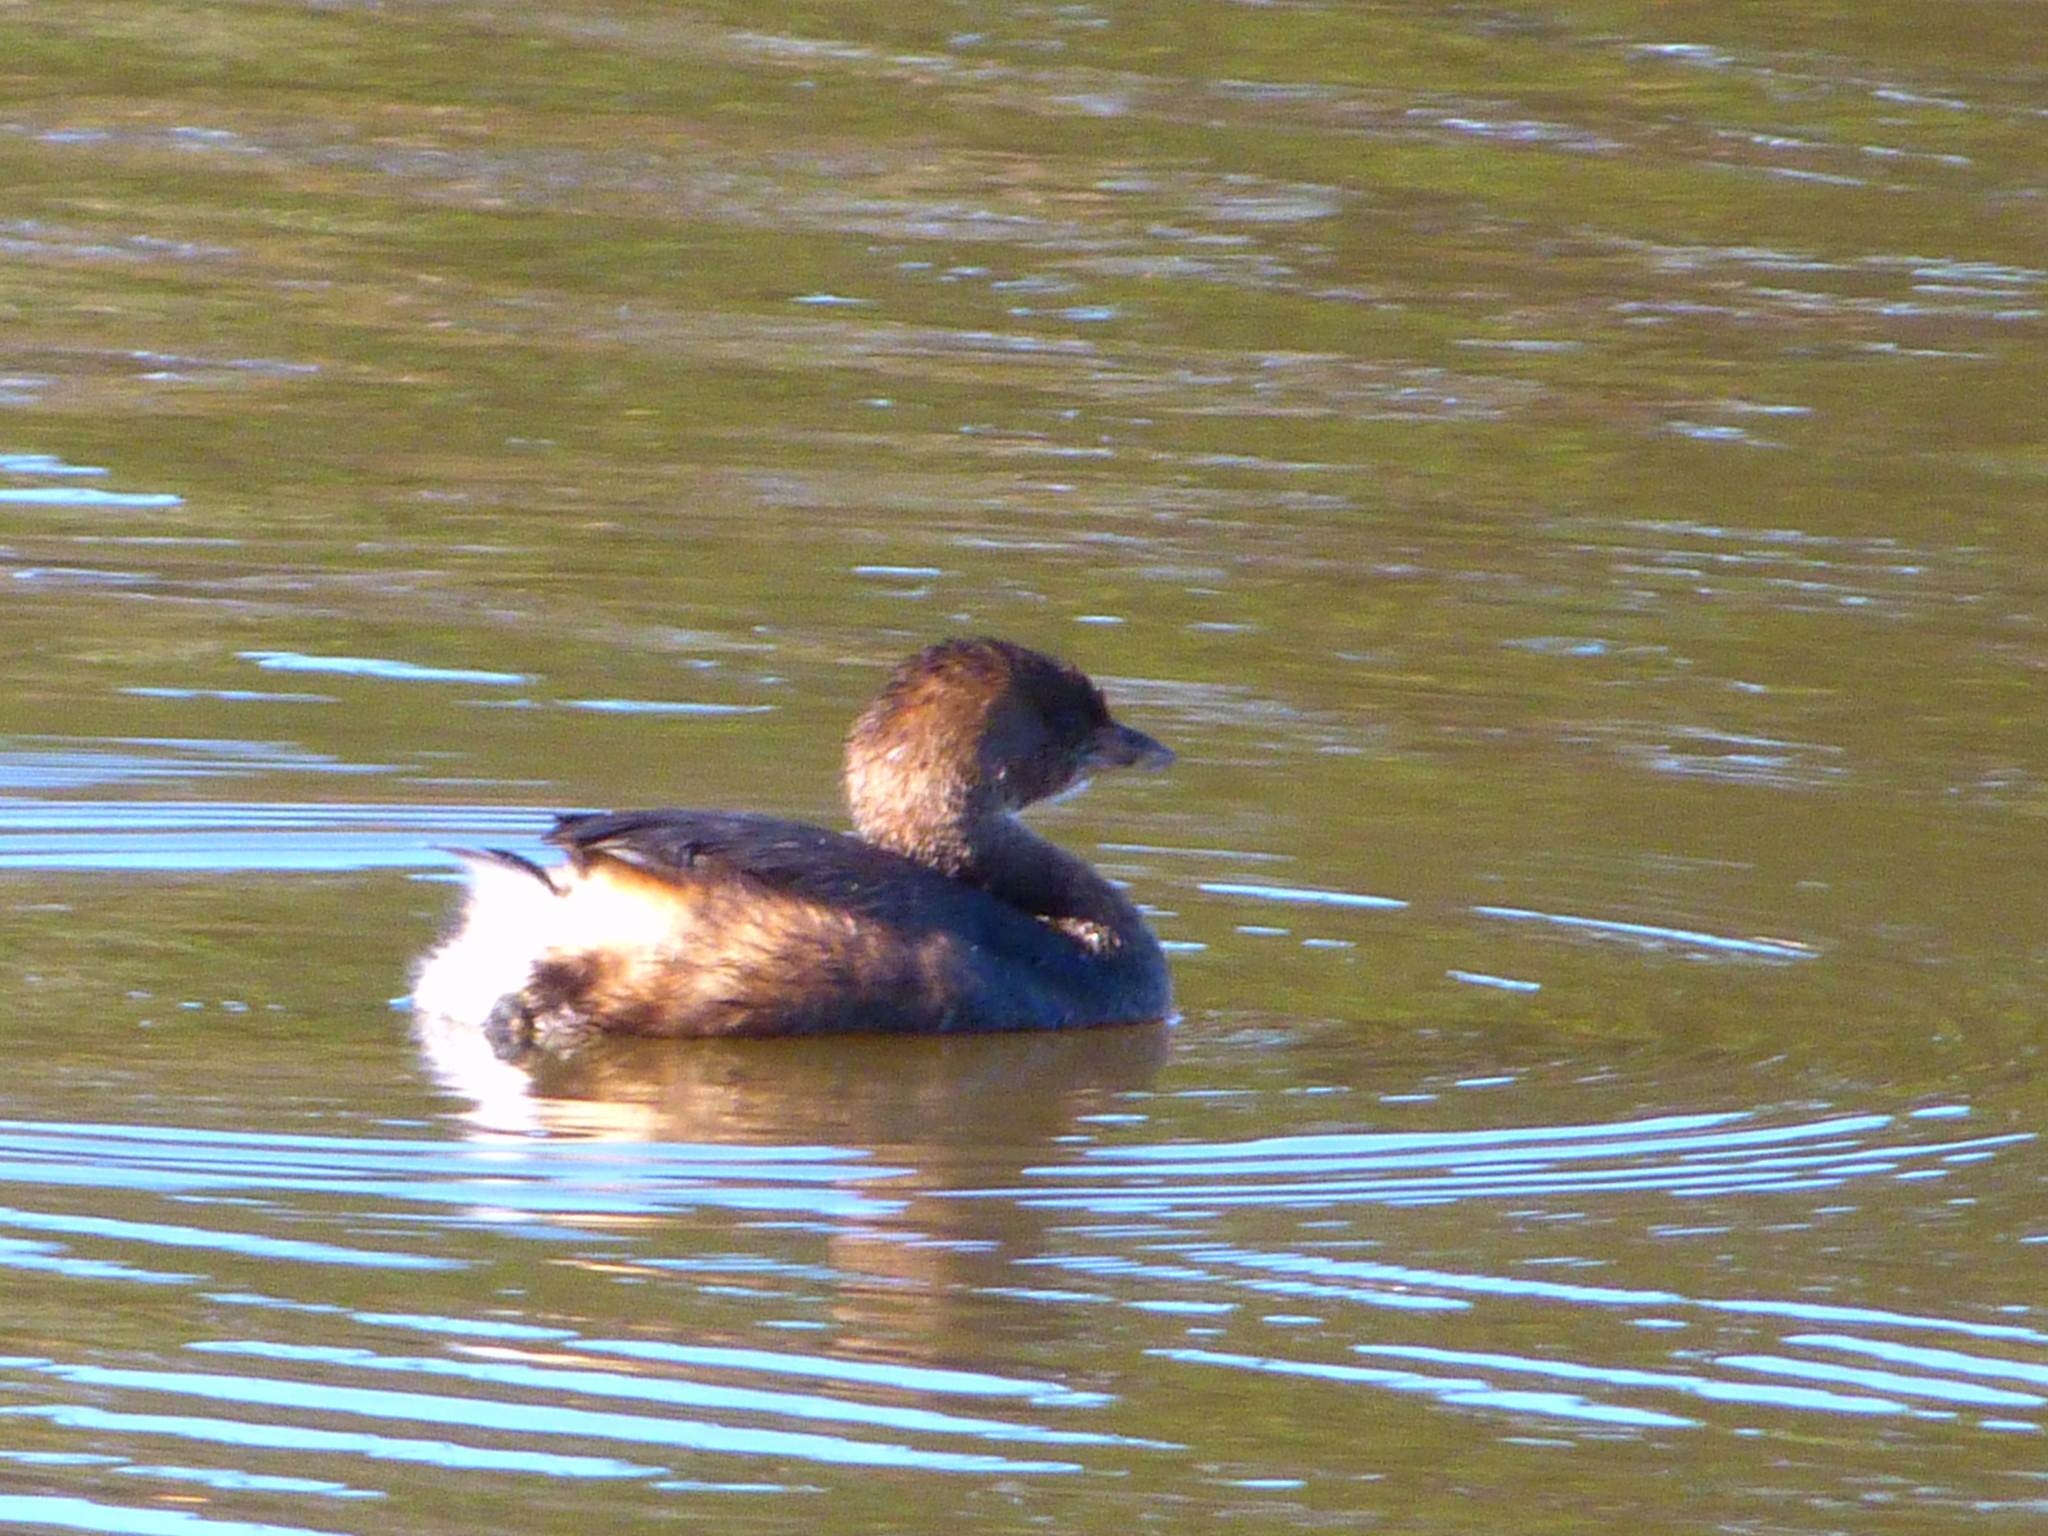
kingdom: Animalia
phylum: Chordata
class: Aves
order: Podicipediformes
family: Podicipedidae
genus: Podilymbus
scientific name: Podilymbus podiceps
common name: Pied-billed grebe
